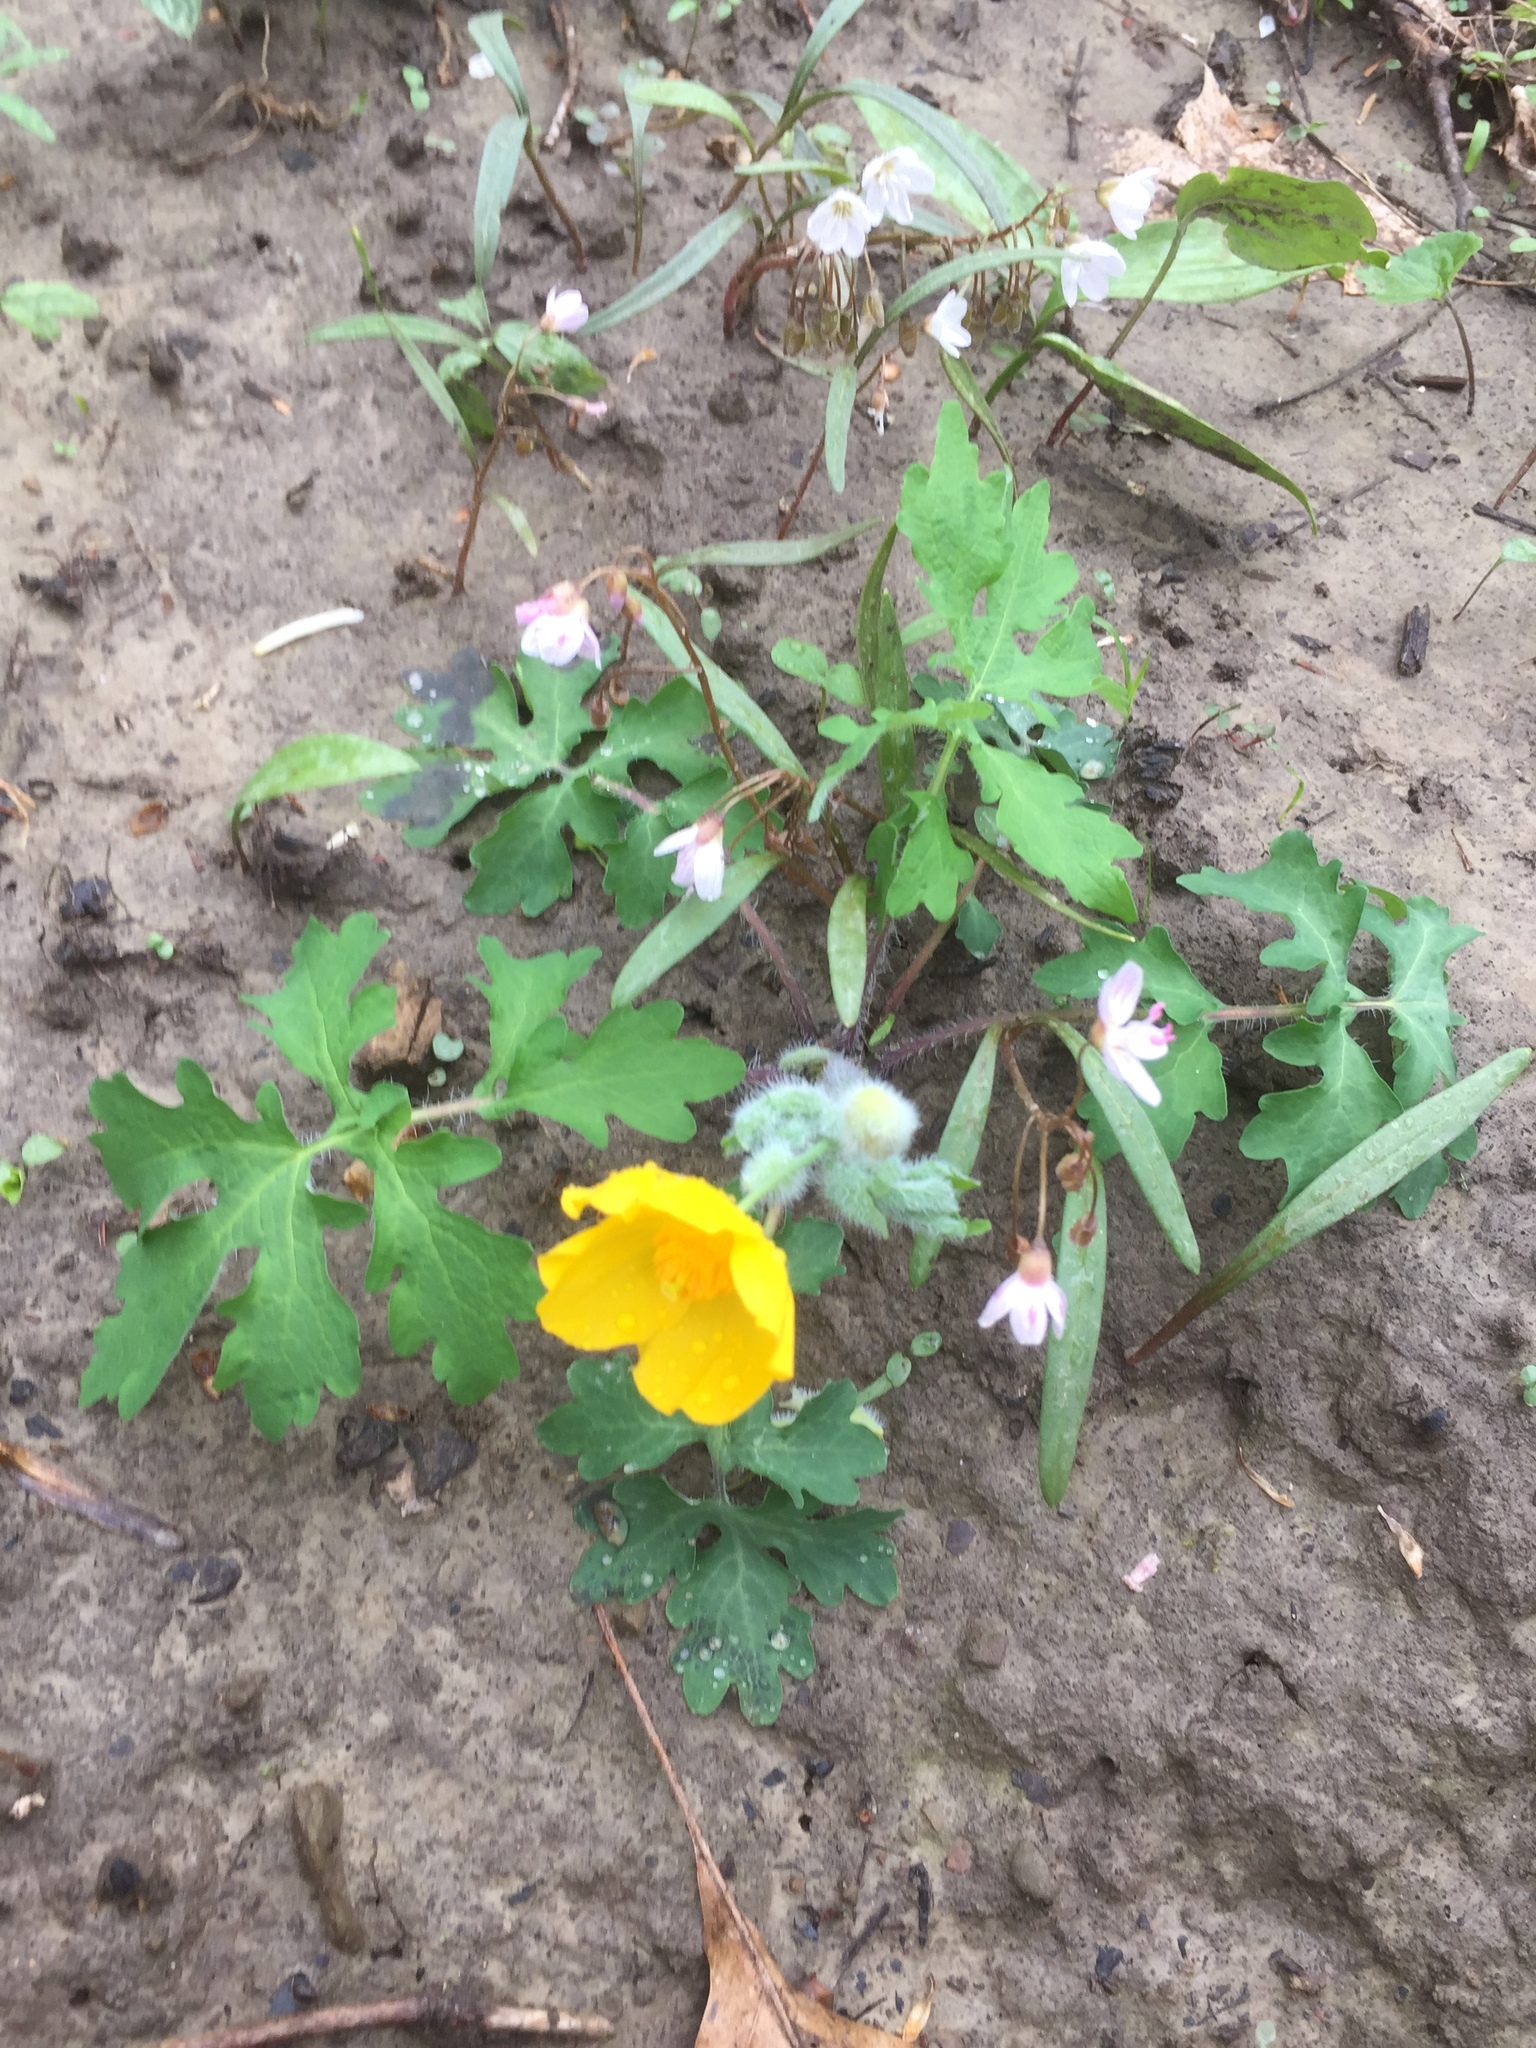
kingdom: Plantae
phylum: Tracheophyta
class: Magnoliopsida
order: Ranunculales
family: Papaveraceae
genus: Stylophorum
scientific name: Stylophorum diphyllum
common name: Celandine poppy
